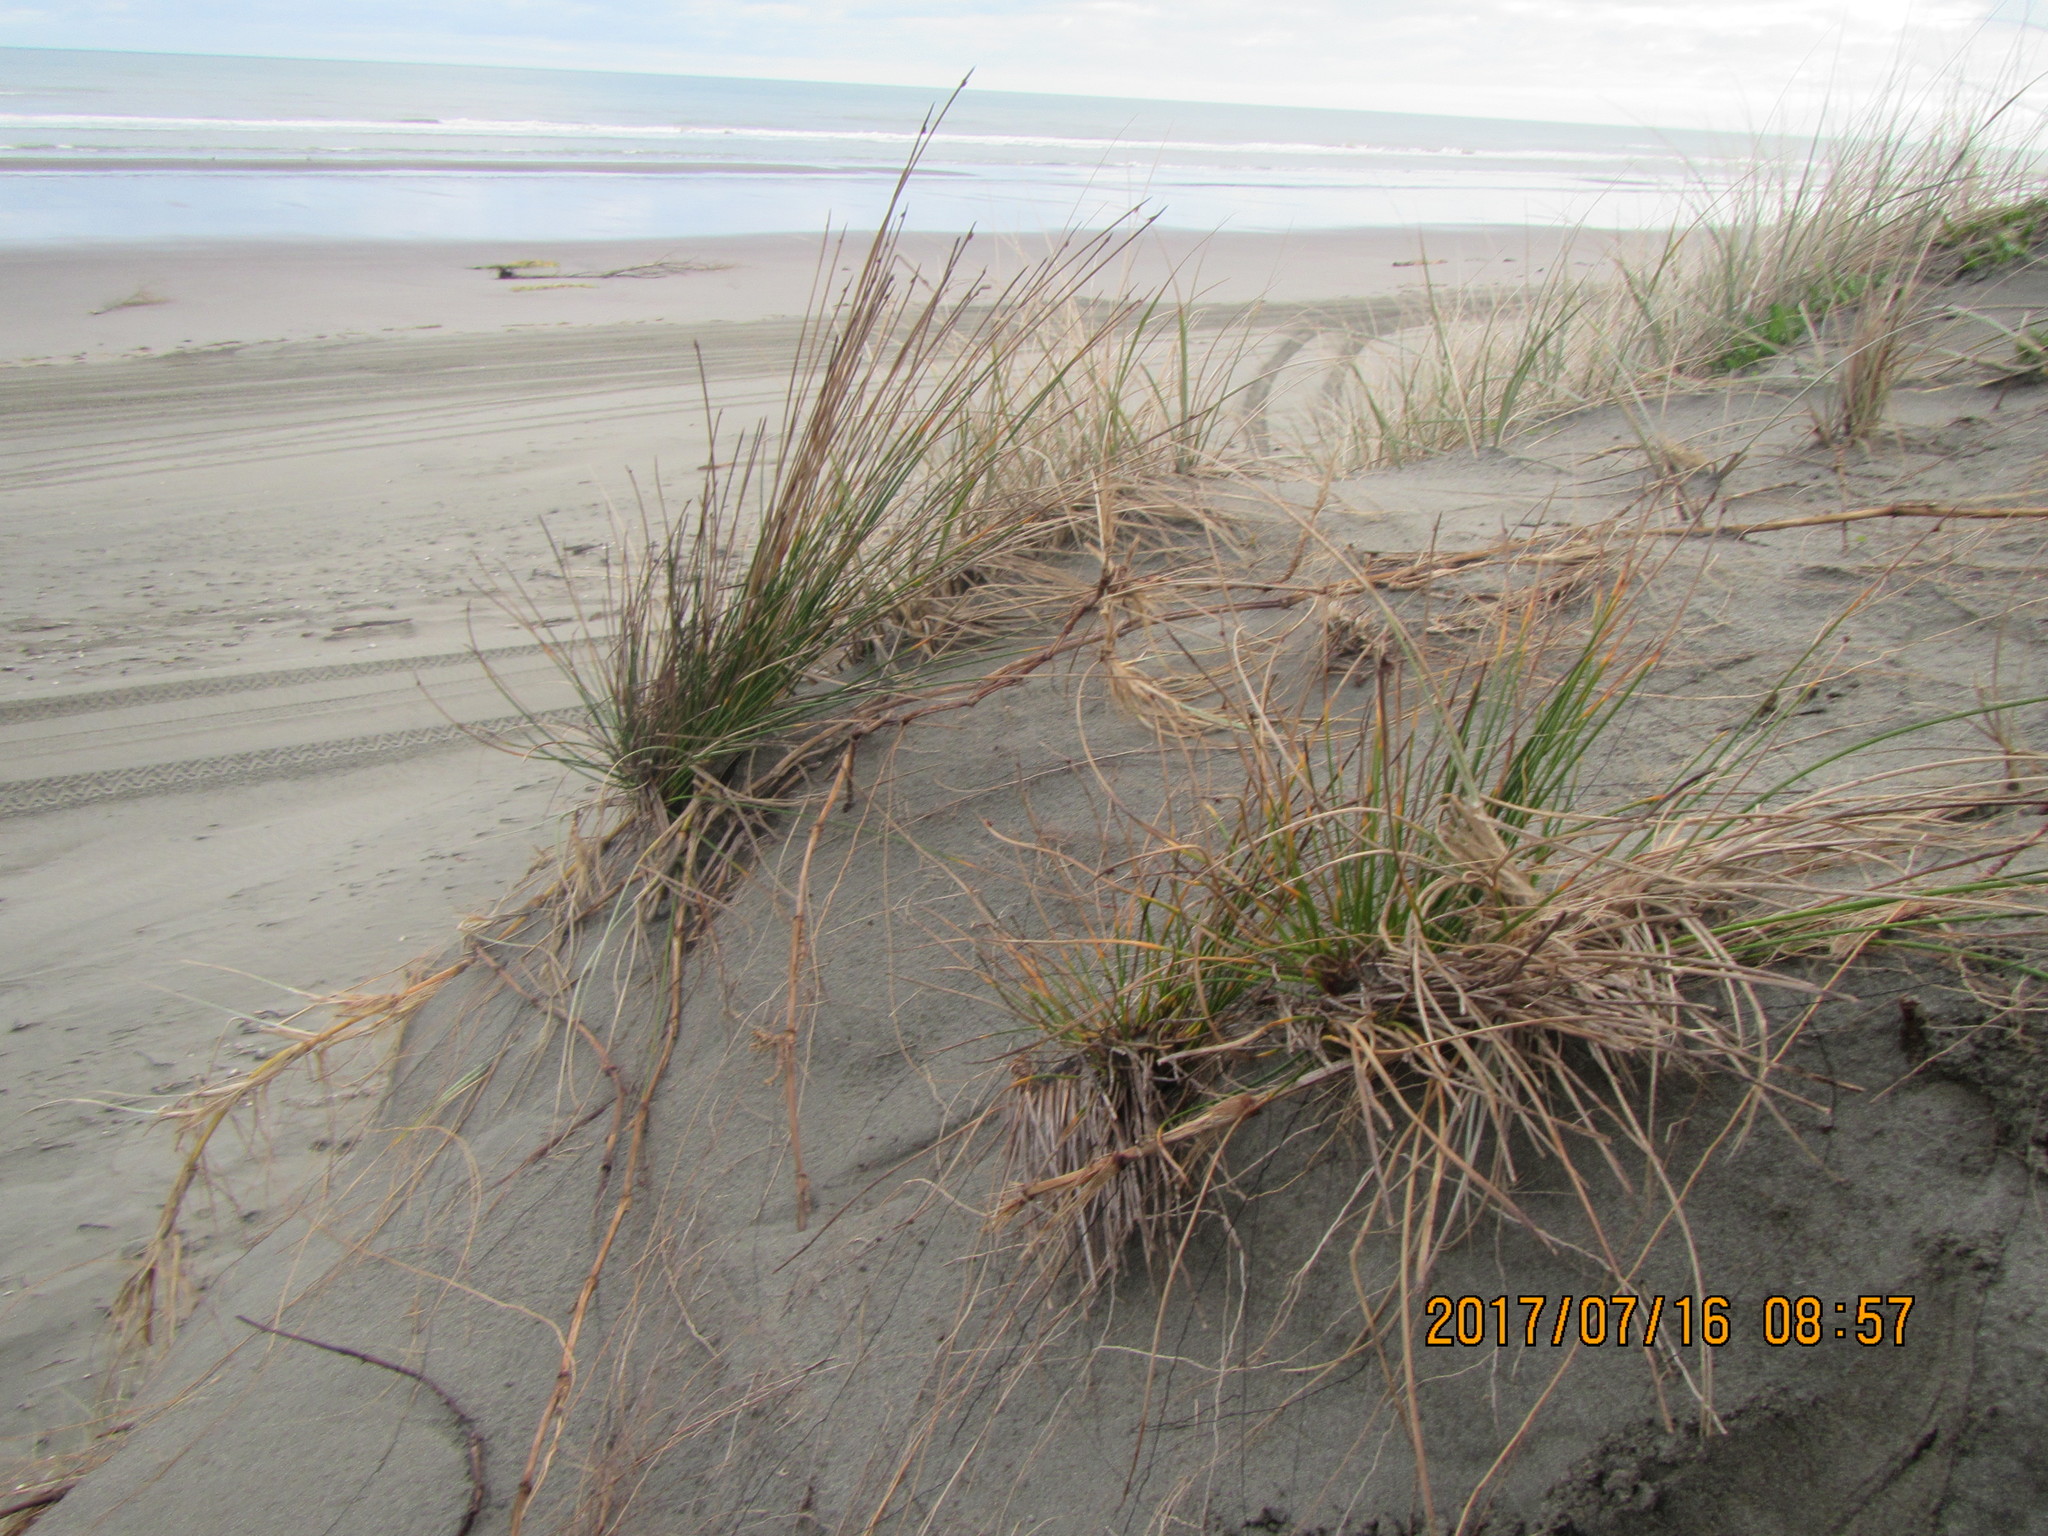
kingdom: Plantae
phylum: Tracheophyta
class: Liliopsida
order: Poales
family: Cyperaceae
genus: Ficinia
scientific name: Ficinia nodosa
